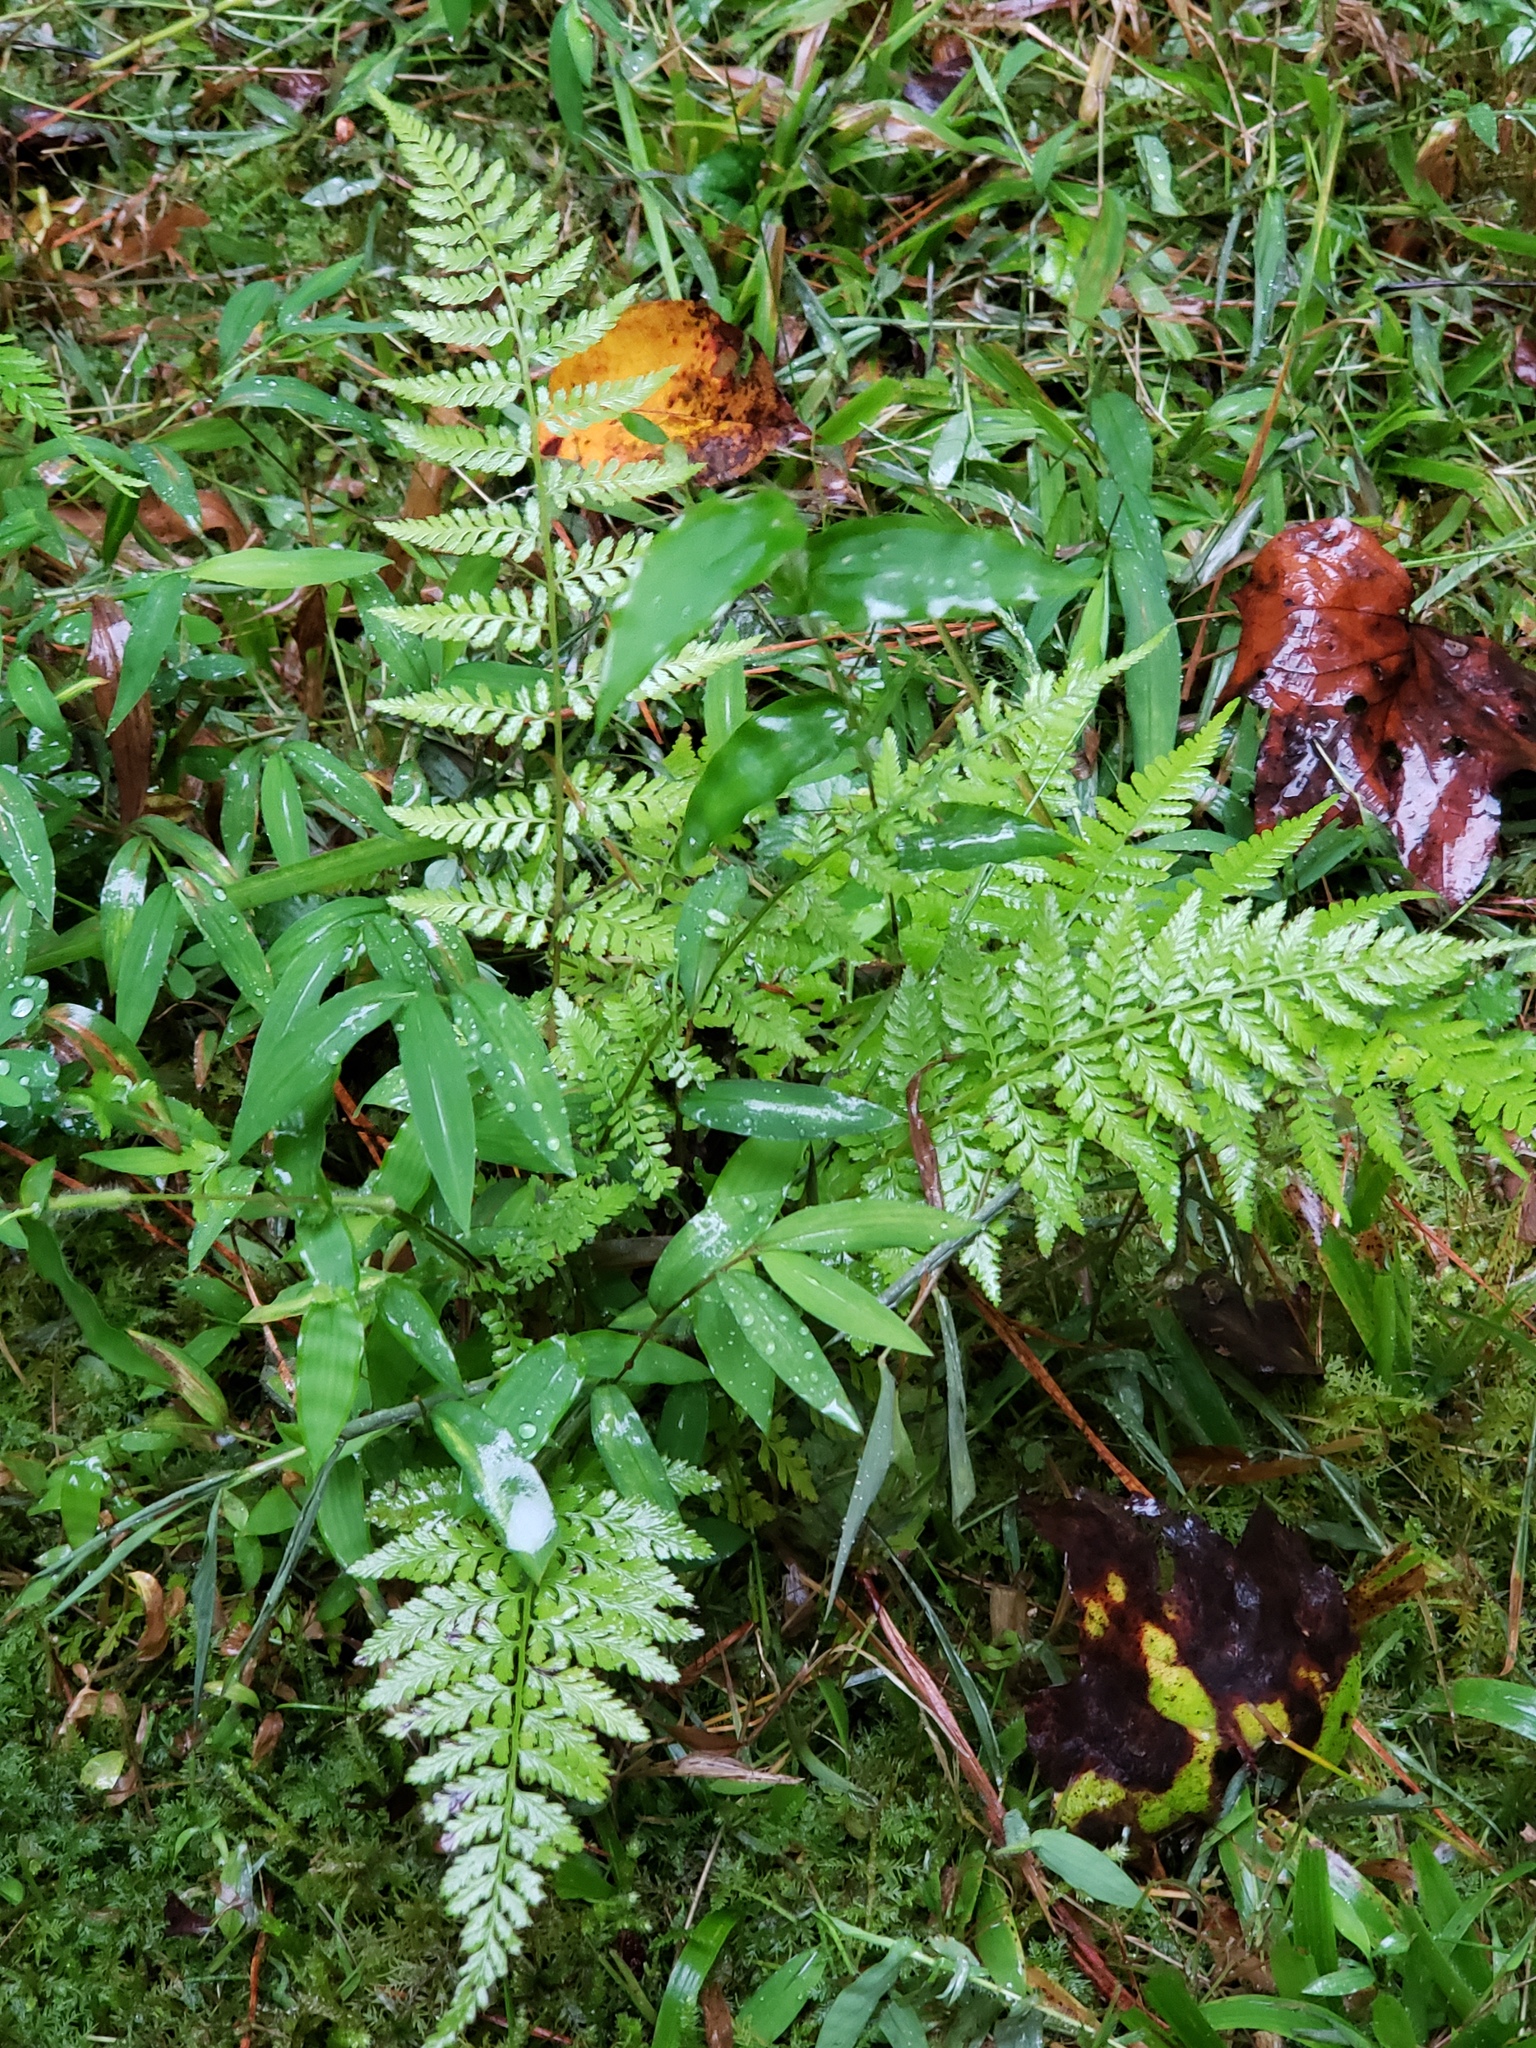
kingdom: Plantae
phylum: Tracheophyta
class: Polypodiopsida
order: Polypodiales
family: Athyriaceae
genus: Athyrium
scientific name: Athyrium asplenioides
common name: Southern lady fern
